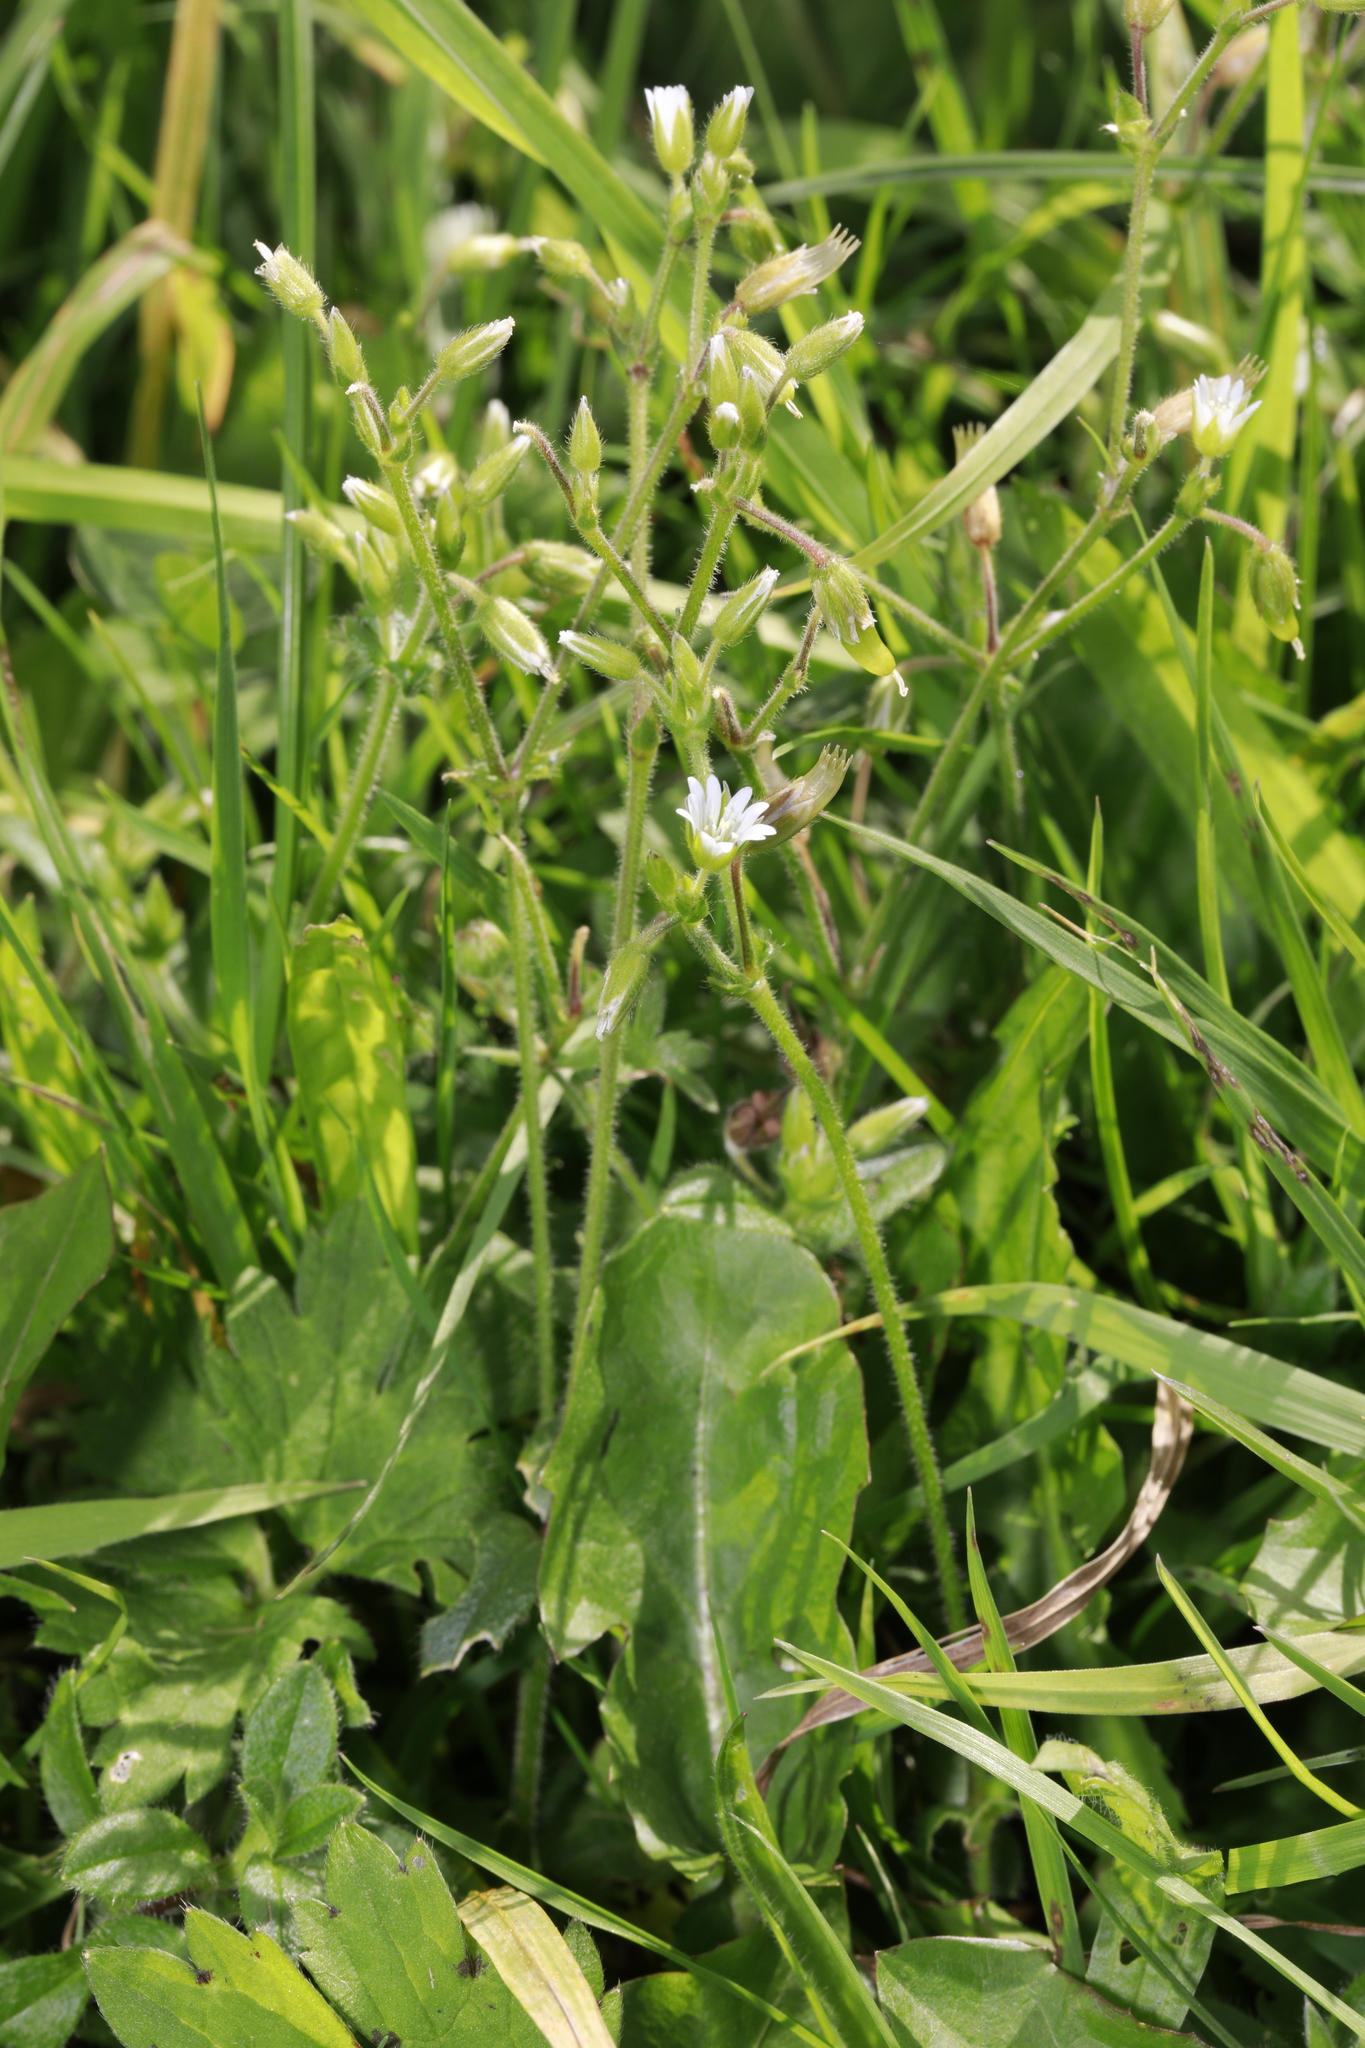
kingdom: Plantae
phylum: Tracheophyta
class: Magnoliopsida
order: Caryophyllales
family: Caryophyllaceae
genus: Cerastium
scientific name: Cerastium fontanum
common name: Common mouse-ear
